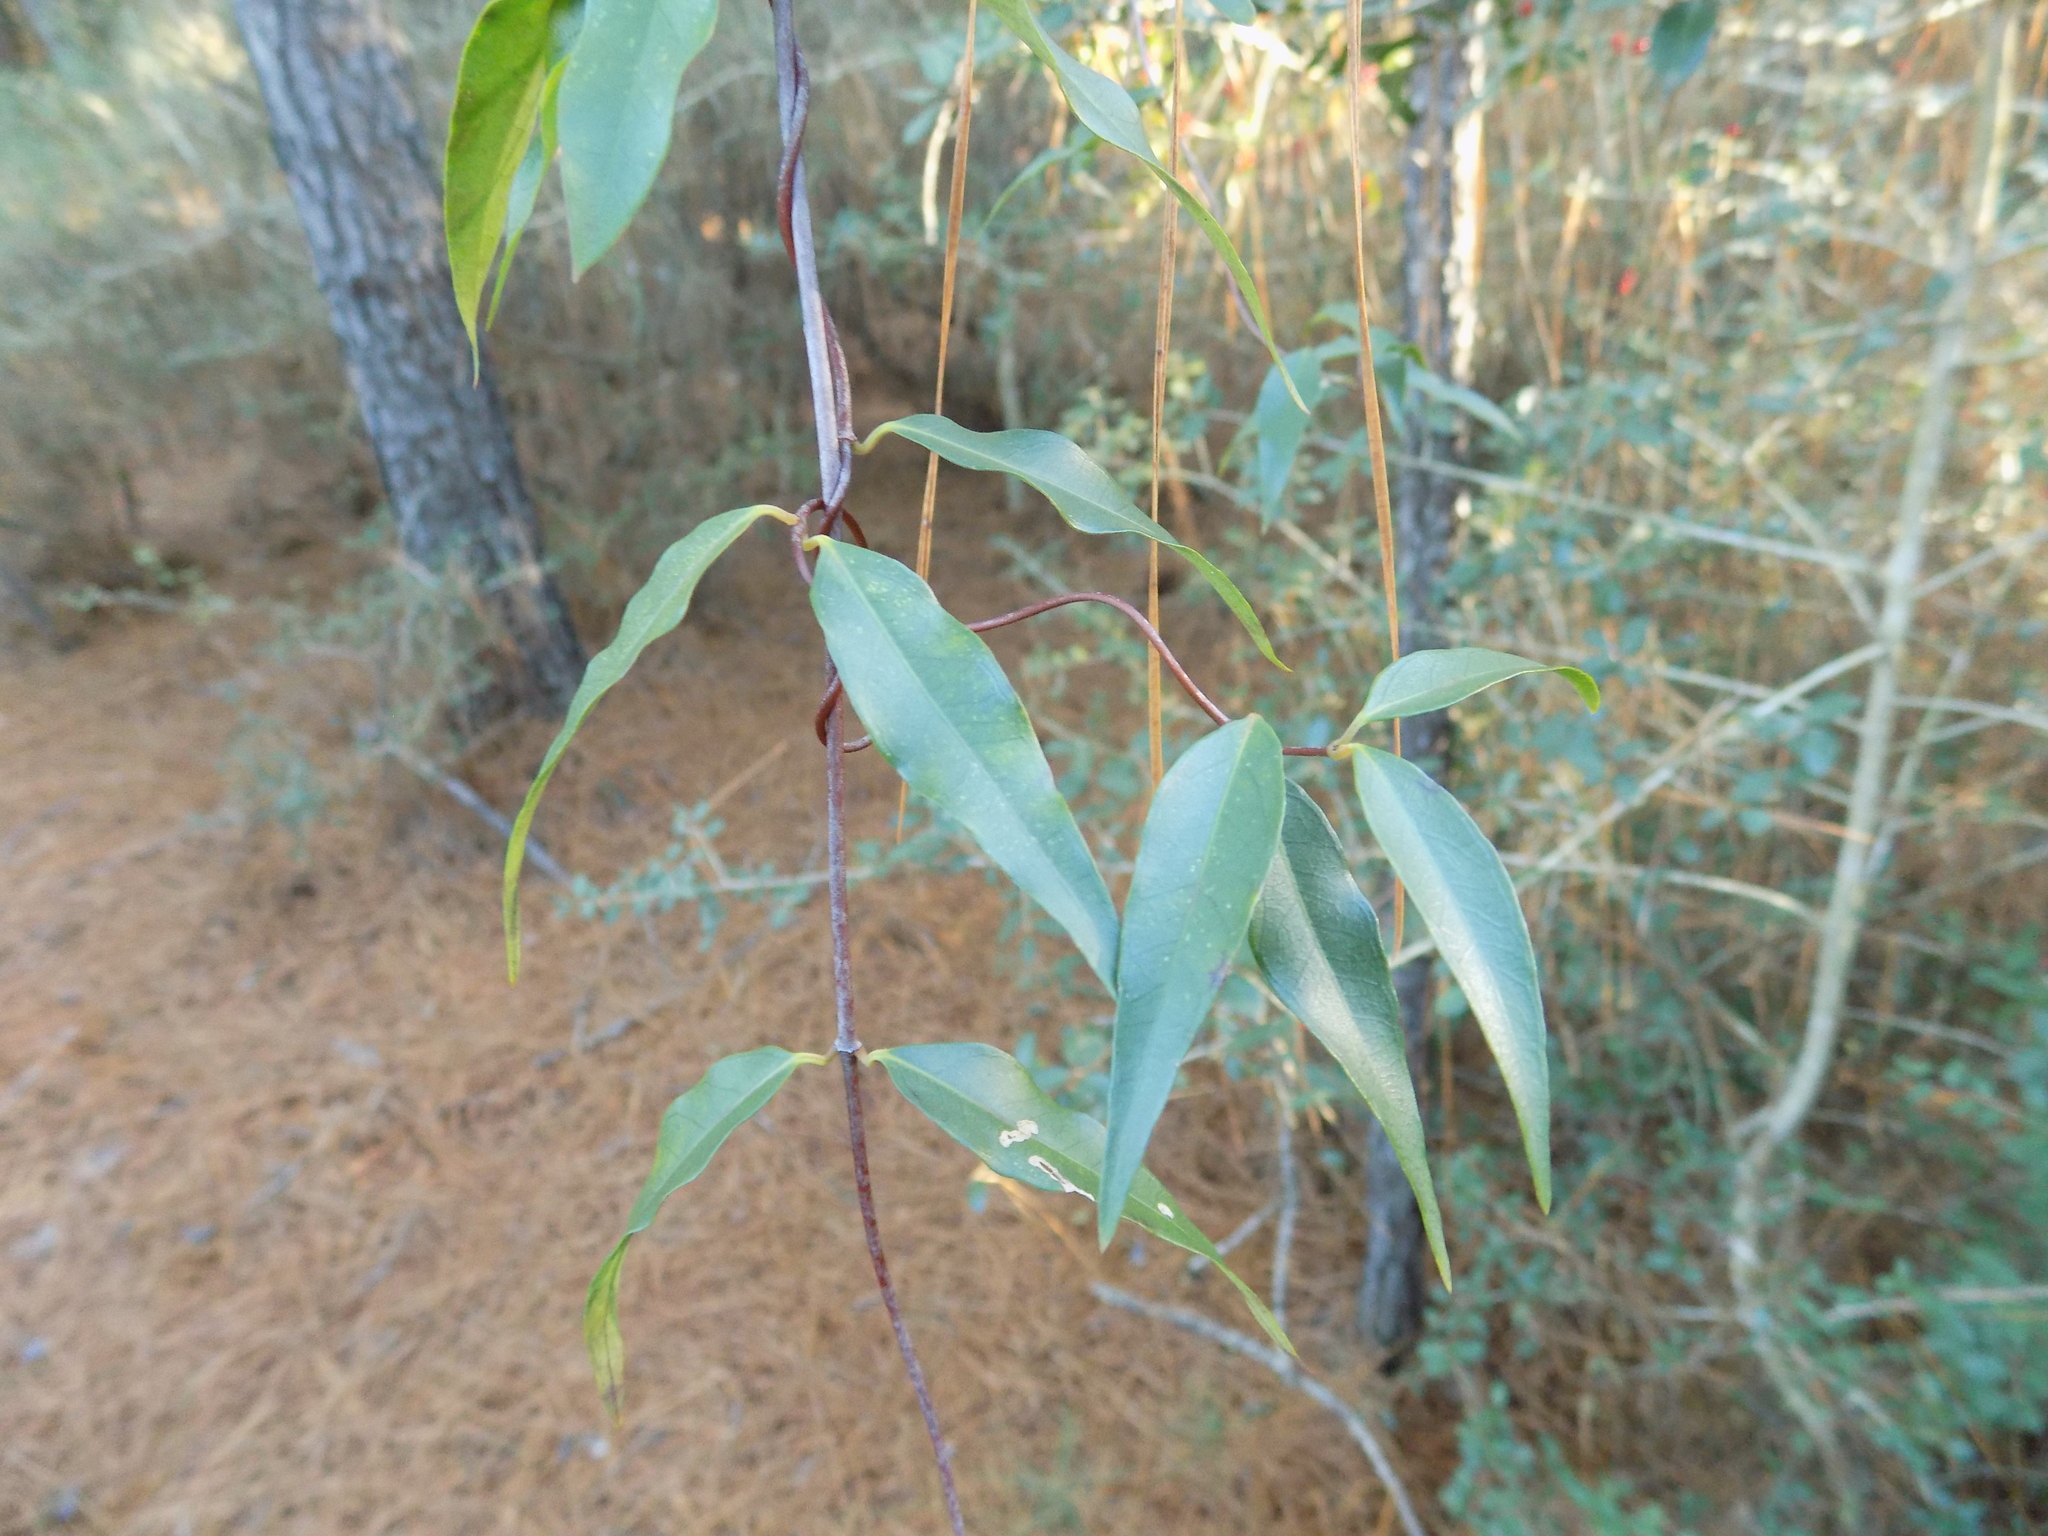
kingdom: Plantae
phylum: Tracheophyta
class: Magnoliopsida
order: Gentianales
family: Gelsemiaceae
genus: Gelsemium
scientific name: Gelsemium sempervirens
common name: Carolina-jasmine
